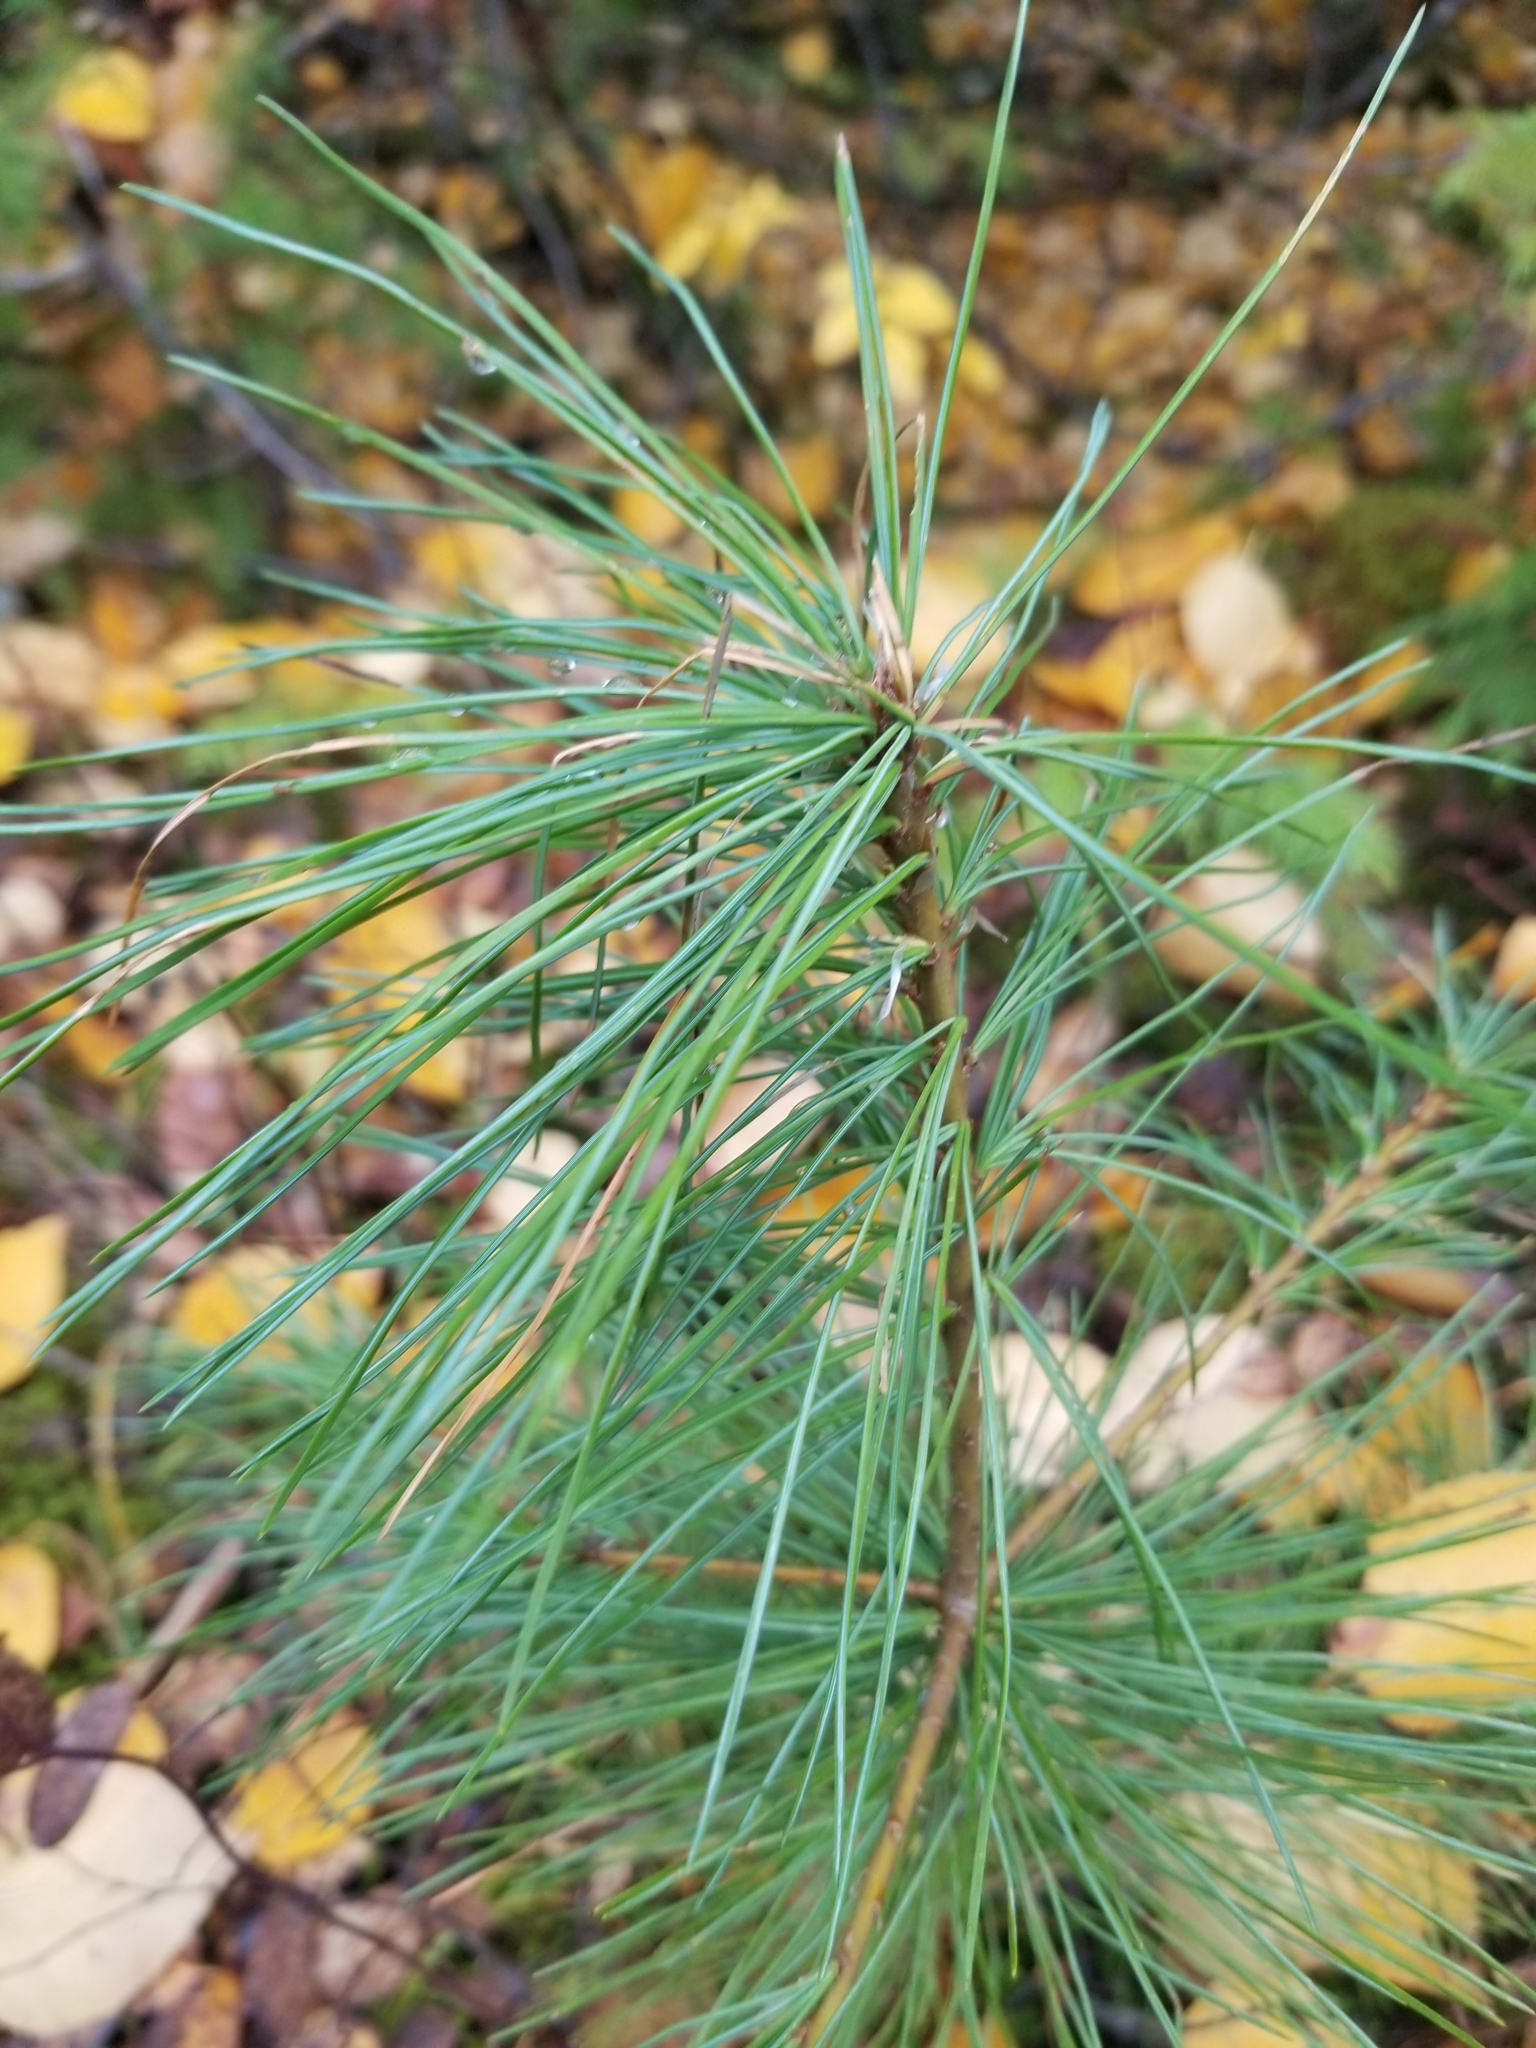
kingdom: Plantae
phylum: Tracheophyta
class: Pinopsida
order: Pinales
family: Pinaceae
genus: Pinus
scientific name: Pinus monticola
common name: Western white pine
